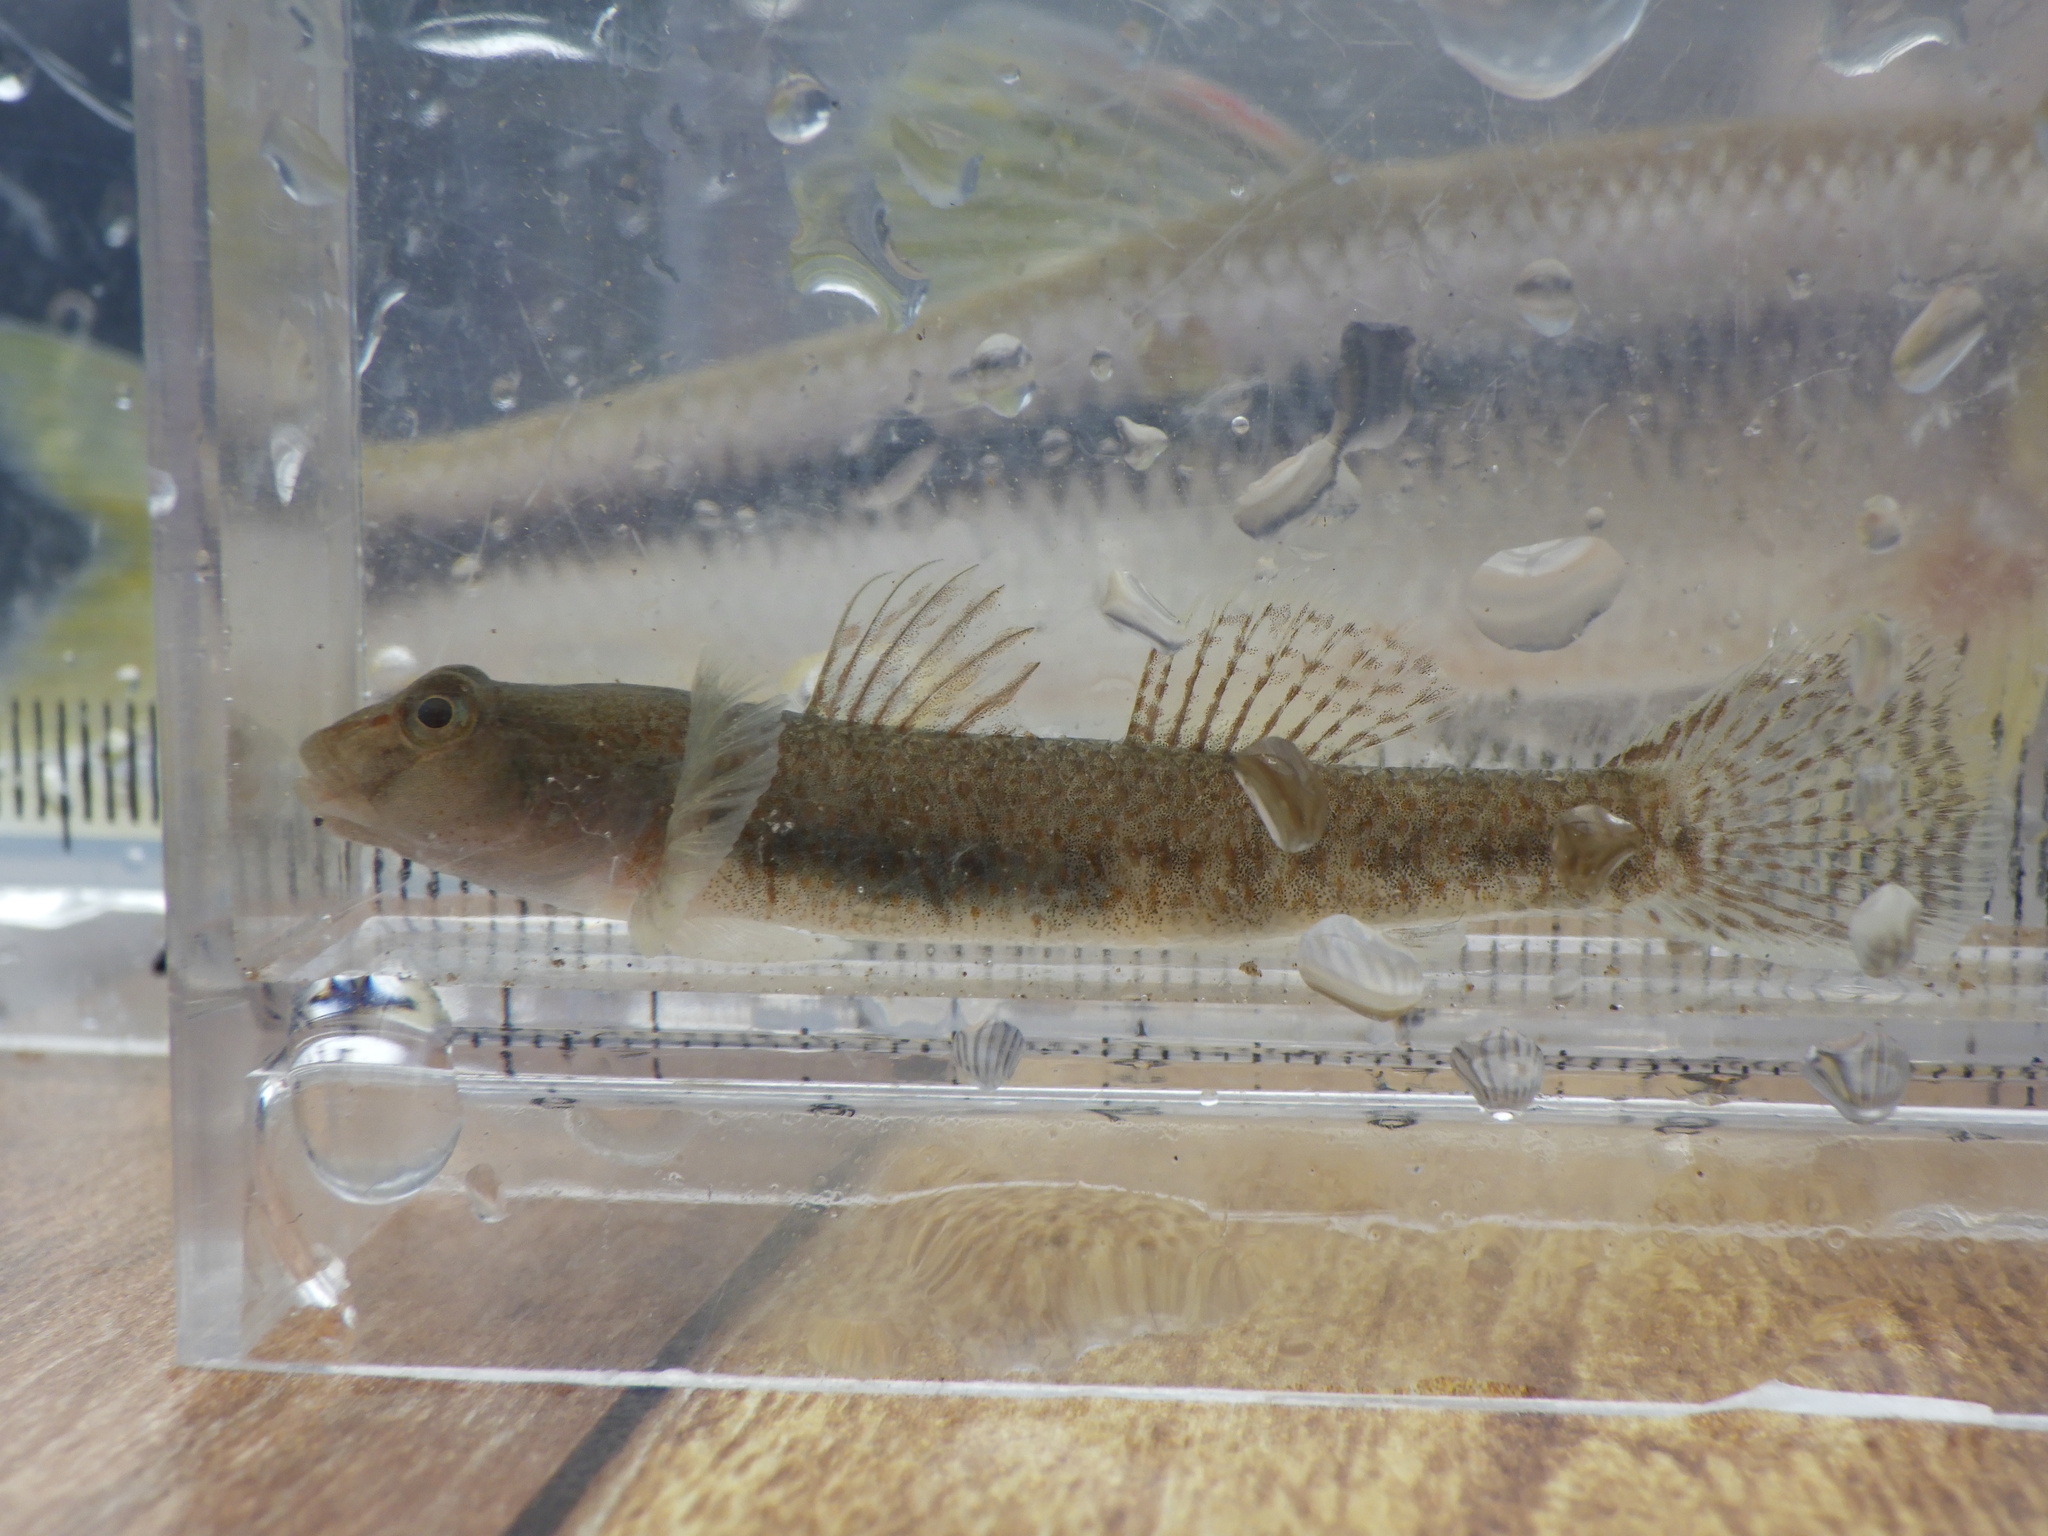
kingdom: Animalia
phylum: Chordata
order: Perciformes
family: Gobiidae
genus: Rhinogobius
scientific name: Rhinogobius flumineus
